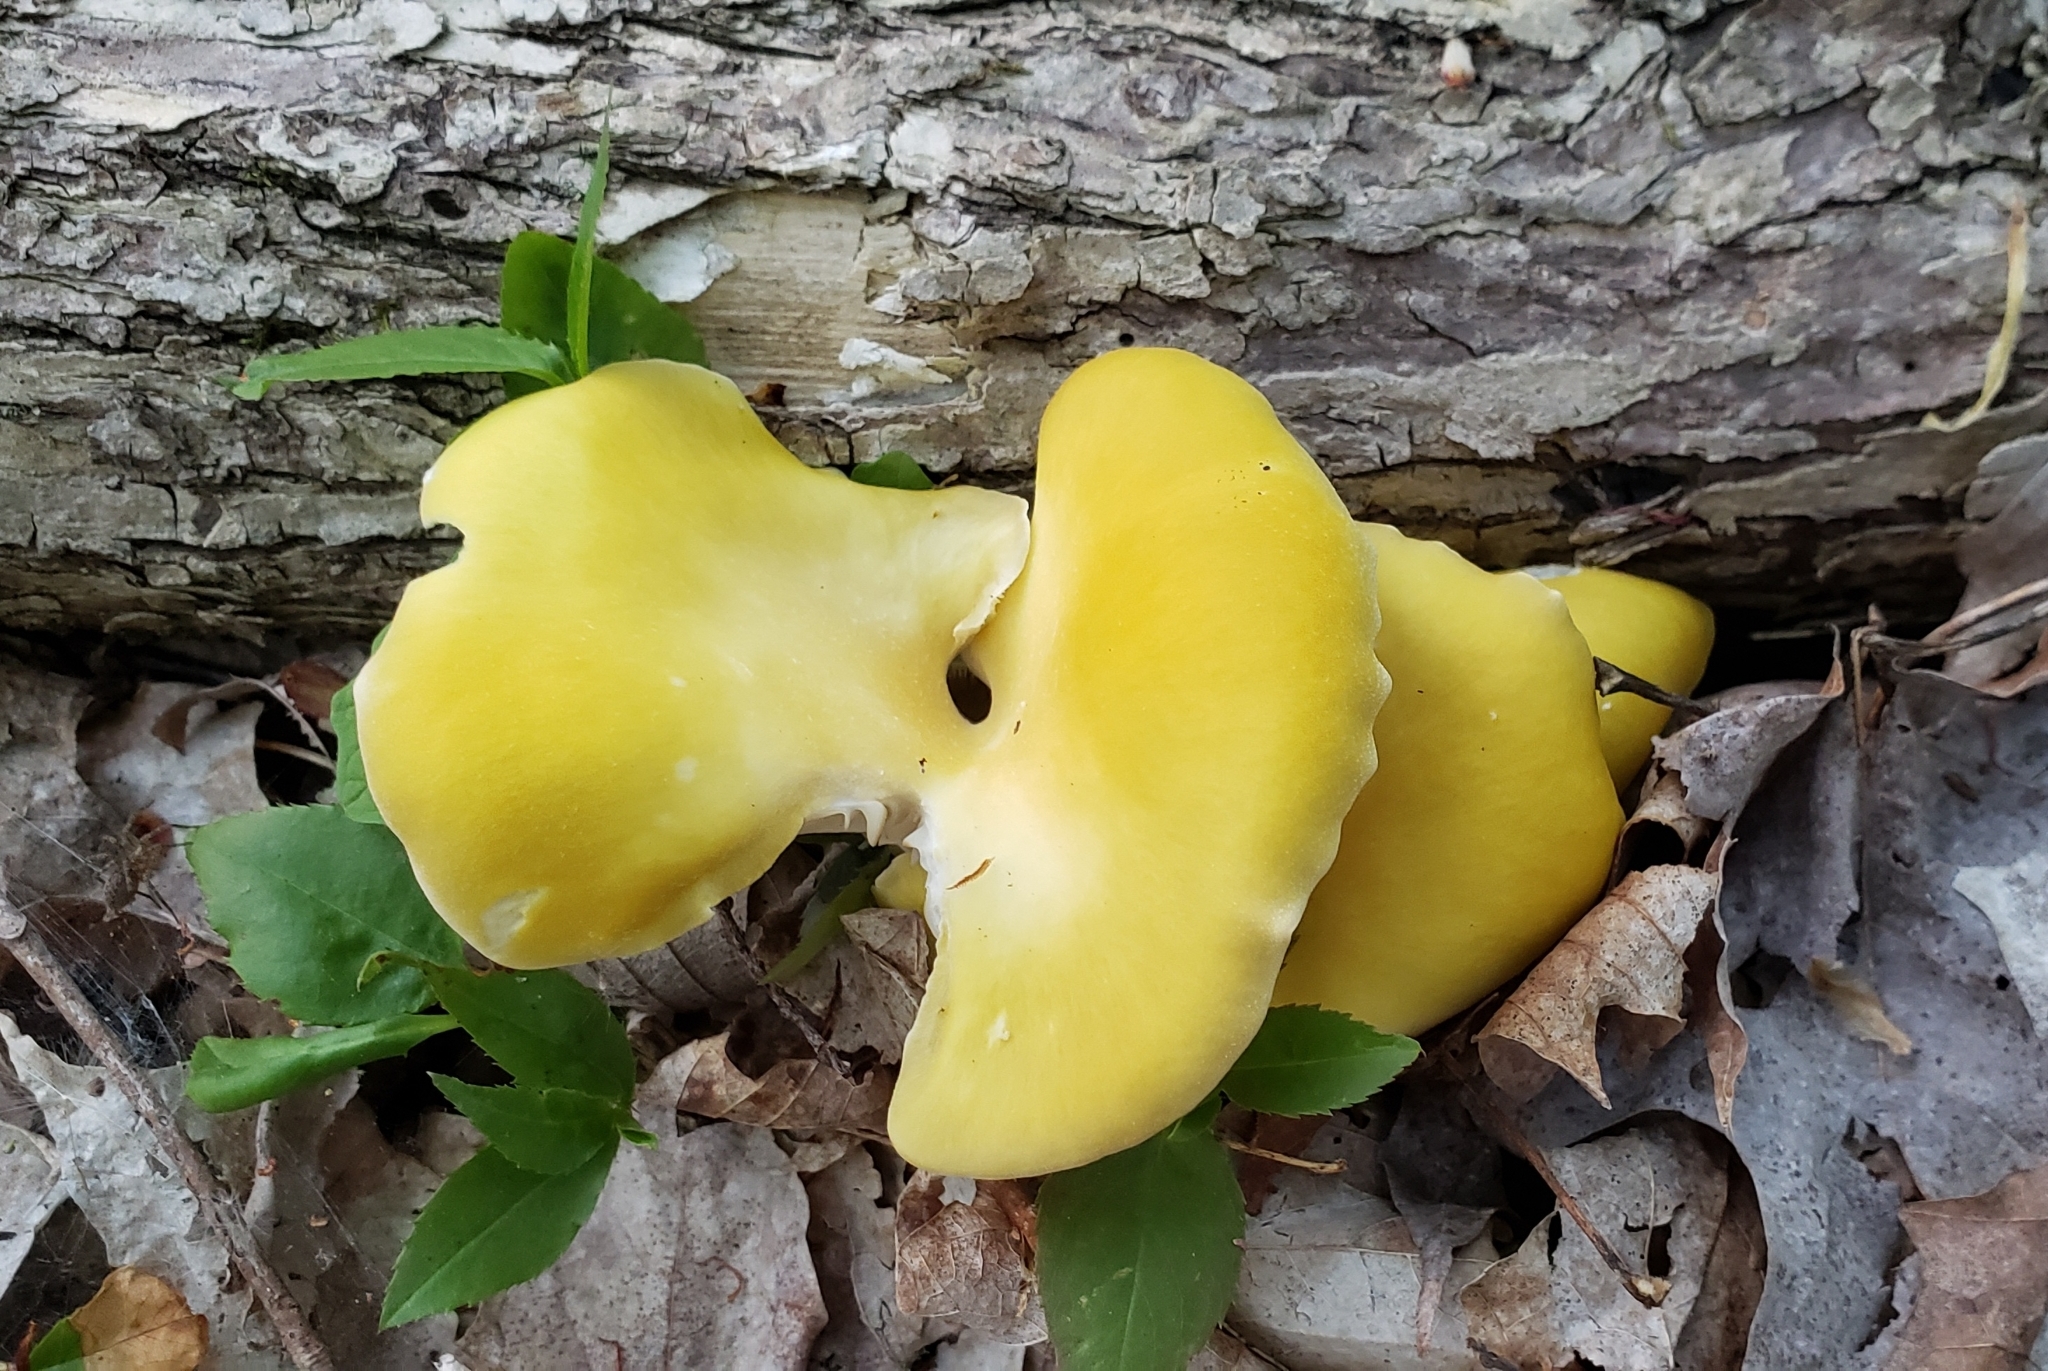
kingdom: Fungi
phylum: Basidiomycota
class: Agaricomycetes
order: Agaricales
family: Pleurotaceae
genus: Pleurotus
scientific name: Pleurotus citrinopileatus
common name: Golden oyster mushroom
